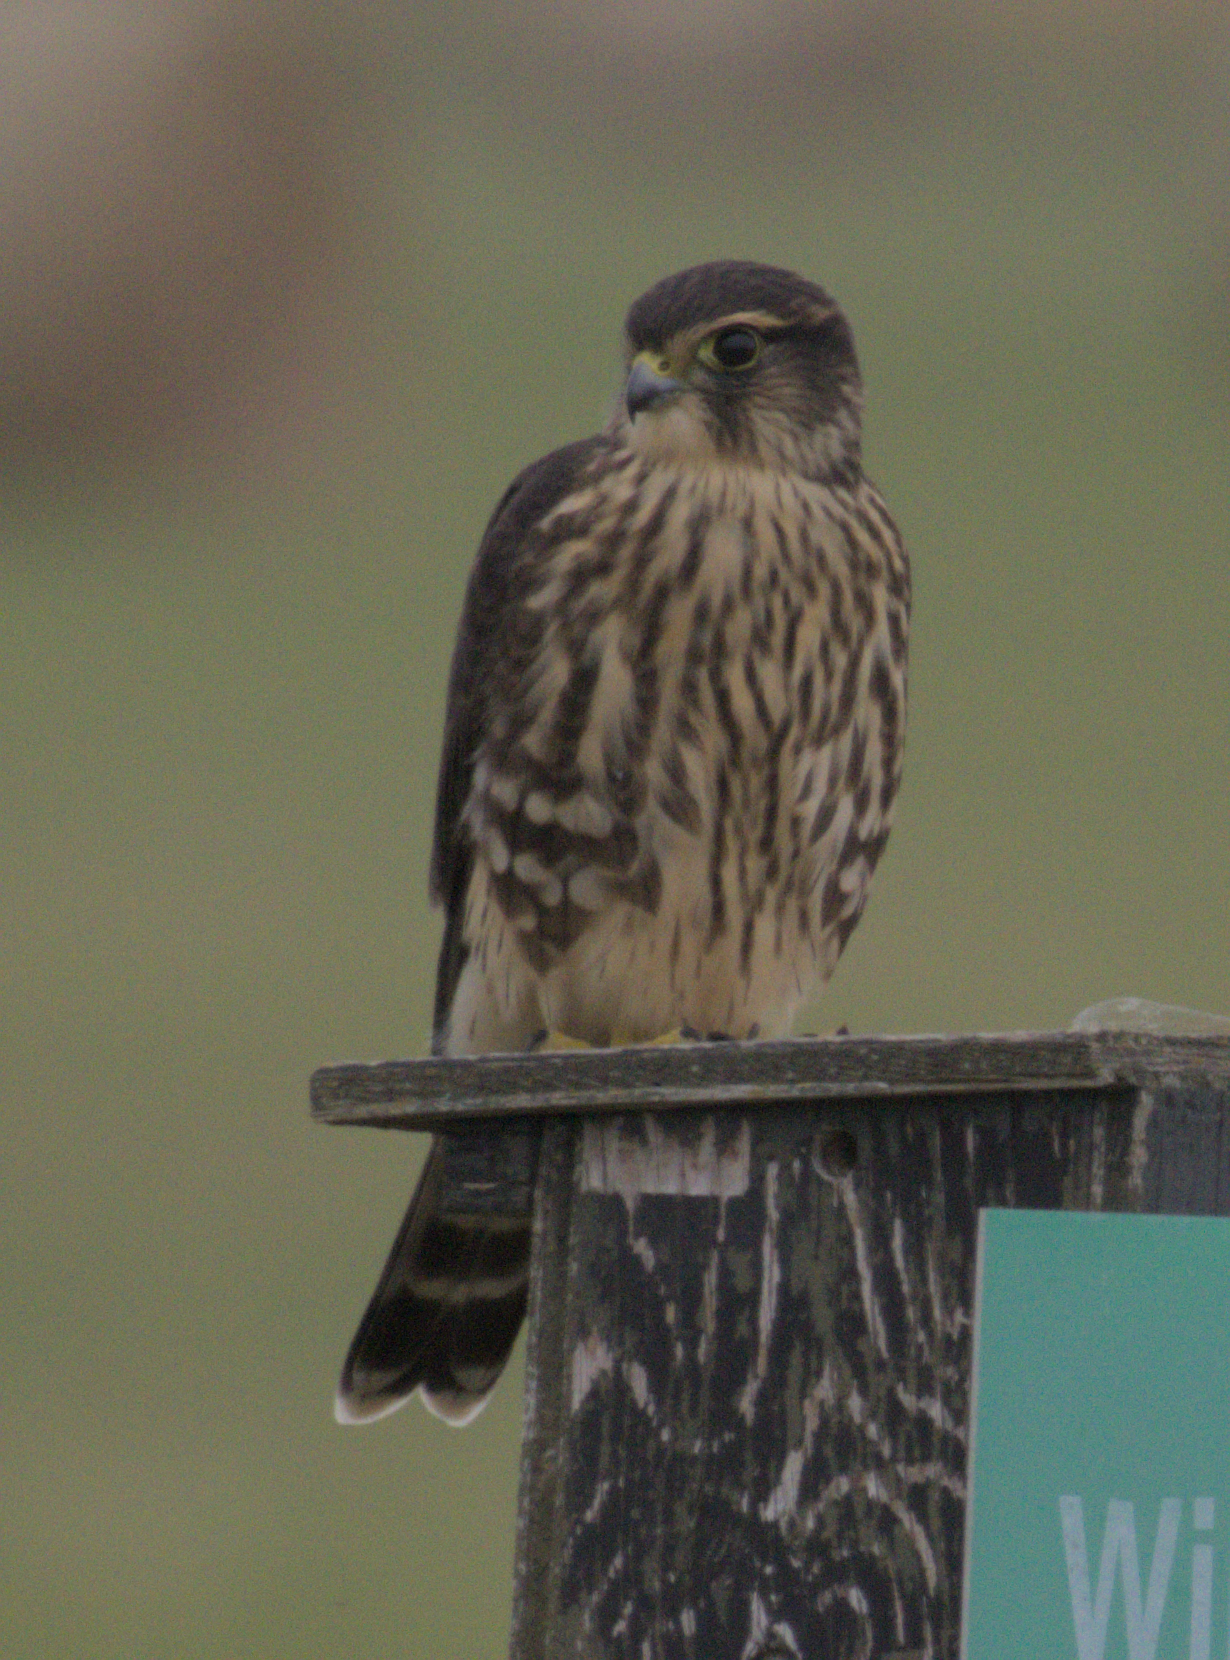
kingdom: Animalia
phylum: Chordata
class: Aves
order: Falconiformes
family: Falconidae
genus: Falco
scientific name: Falco columbarius
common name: Merlin
